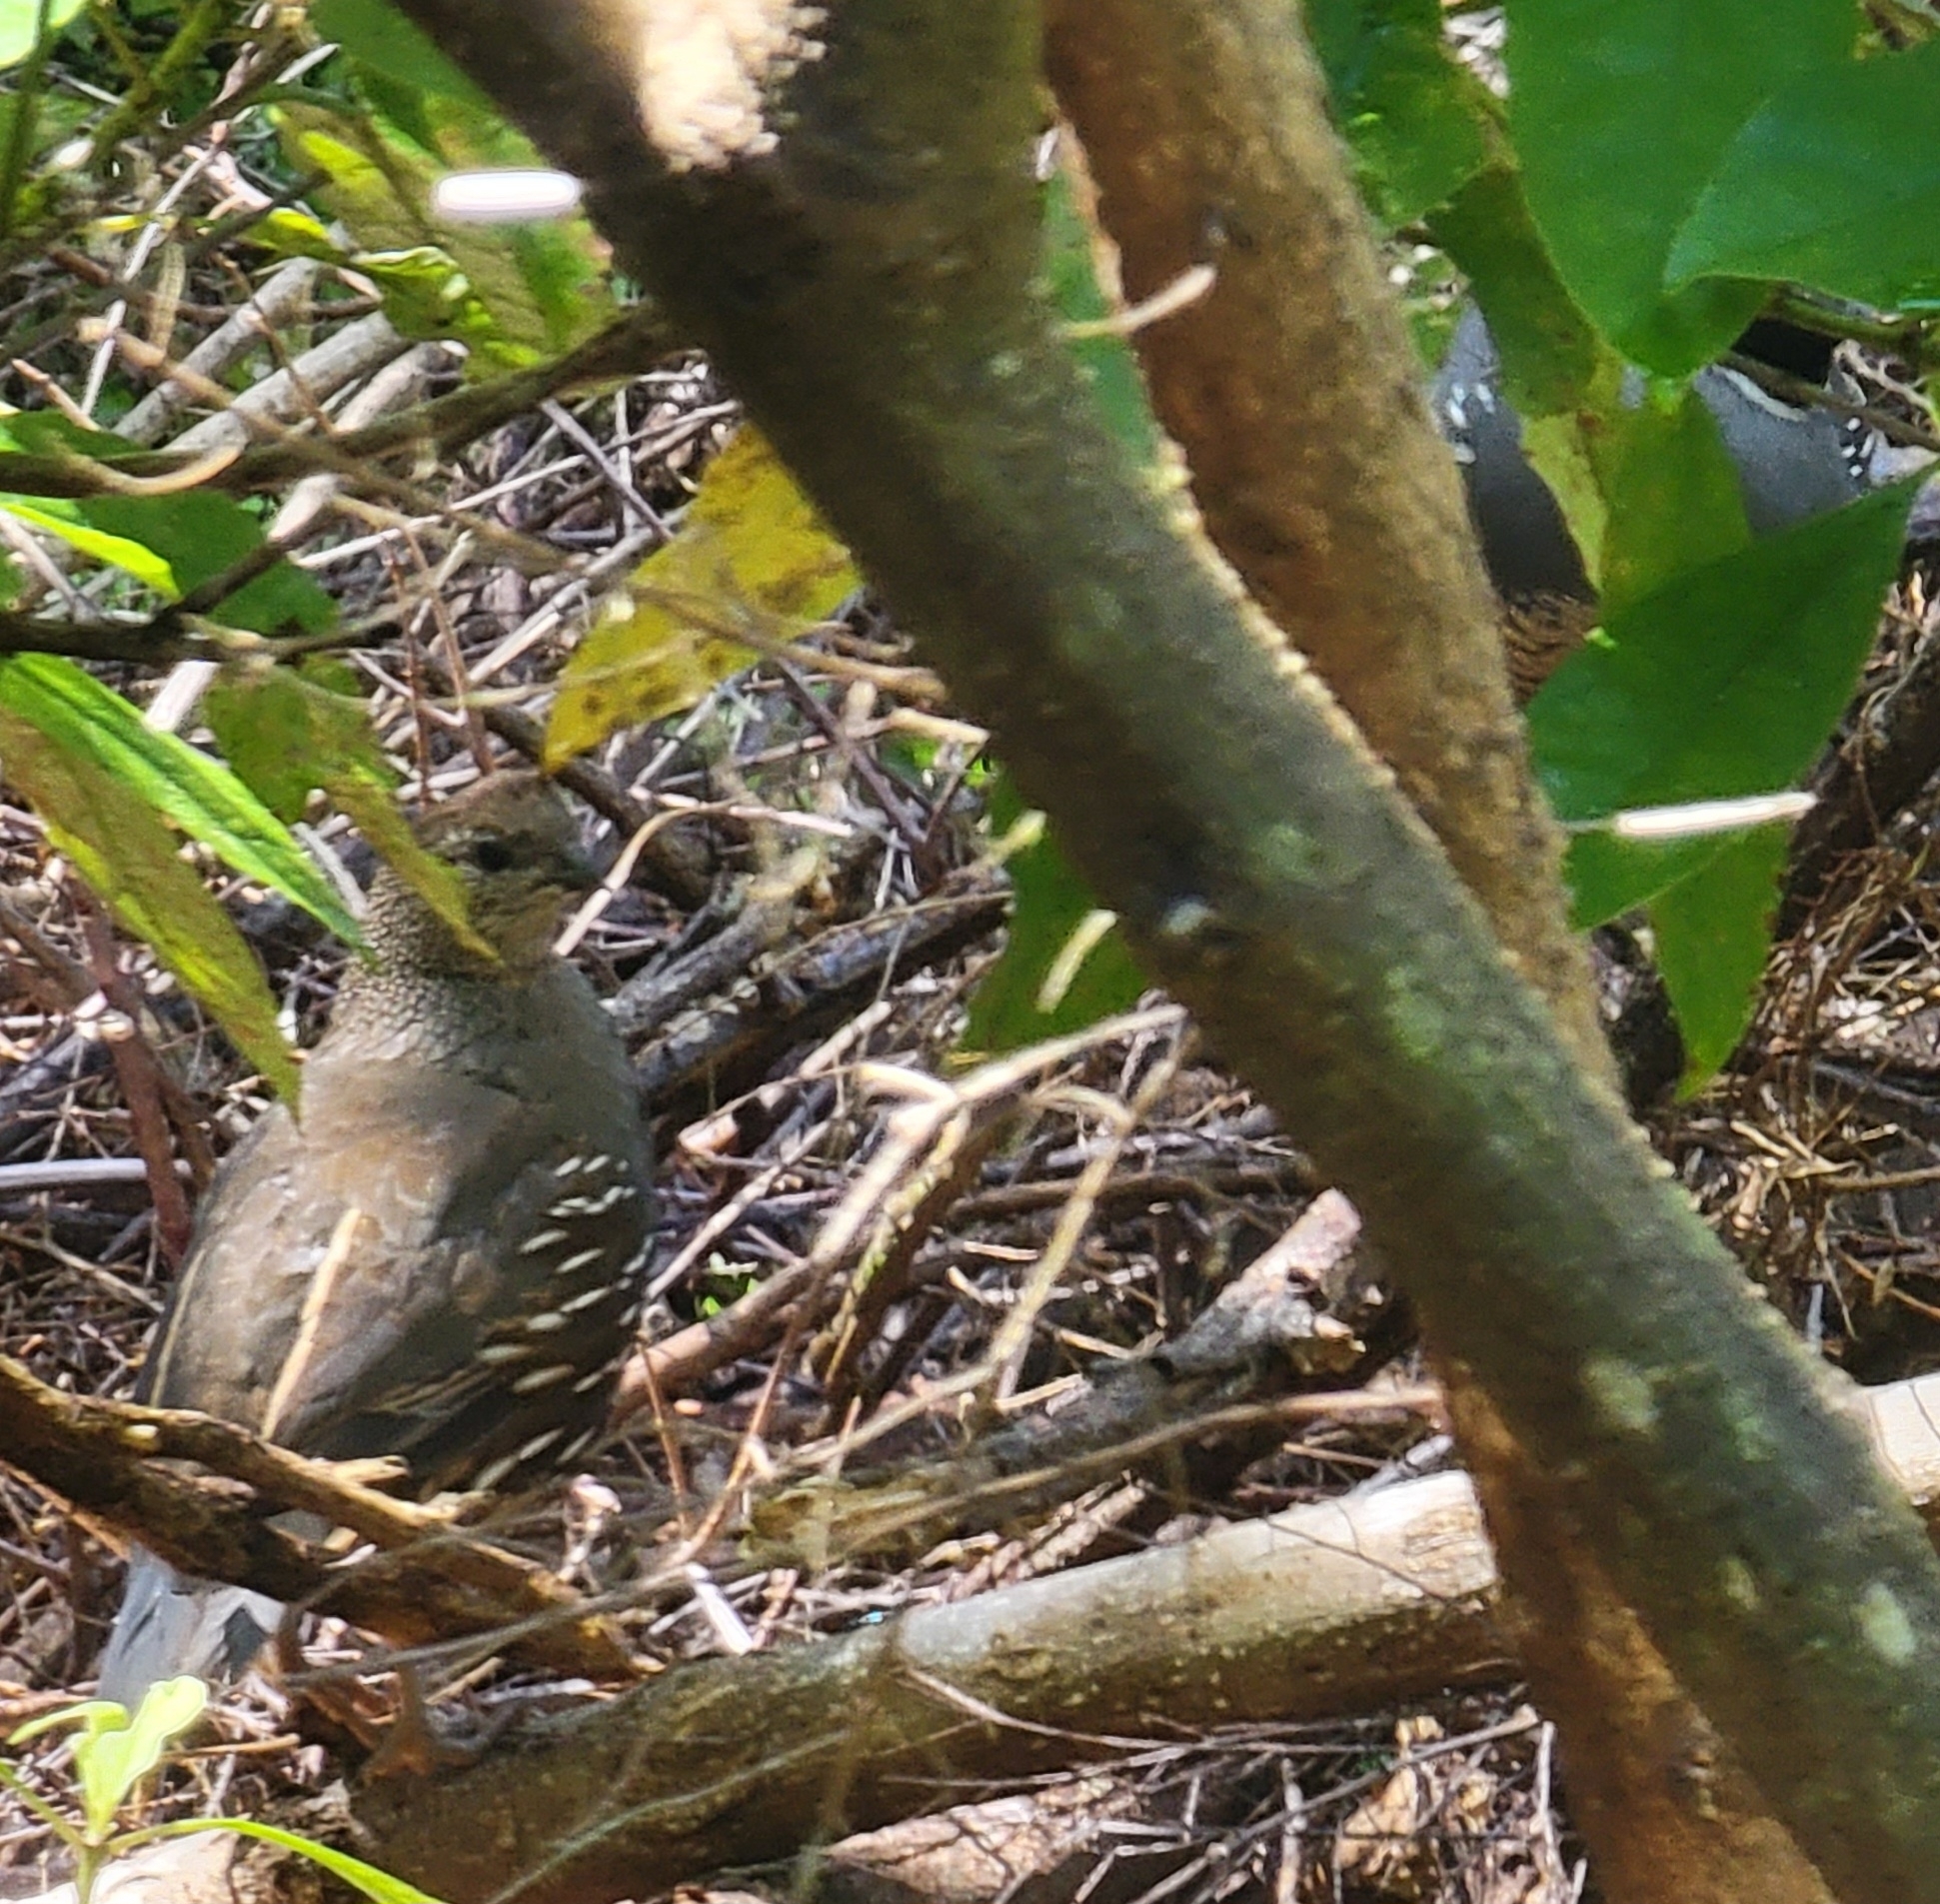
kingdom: Animalia
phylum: Chordata
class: Aves
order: Galliformes
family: Odontophoridae
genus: Callipepla
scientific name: Callipepla californica
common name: California quail
